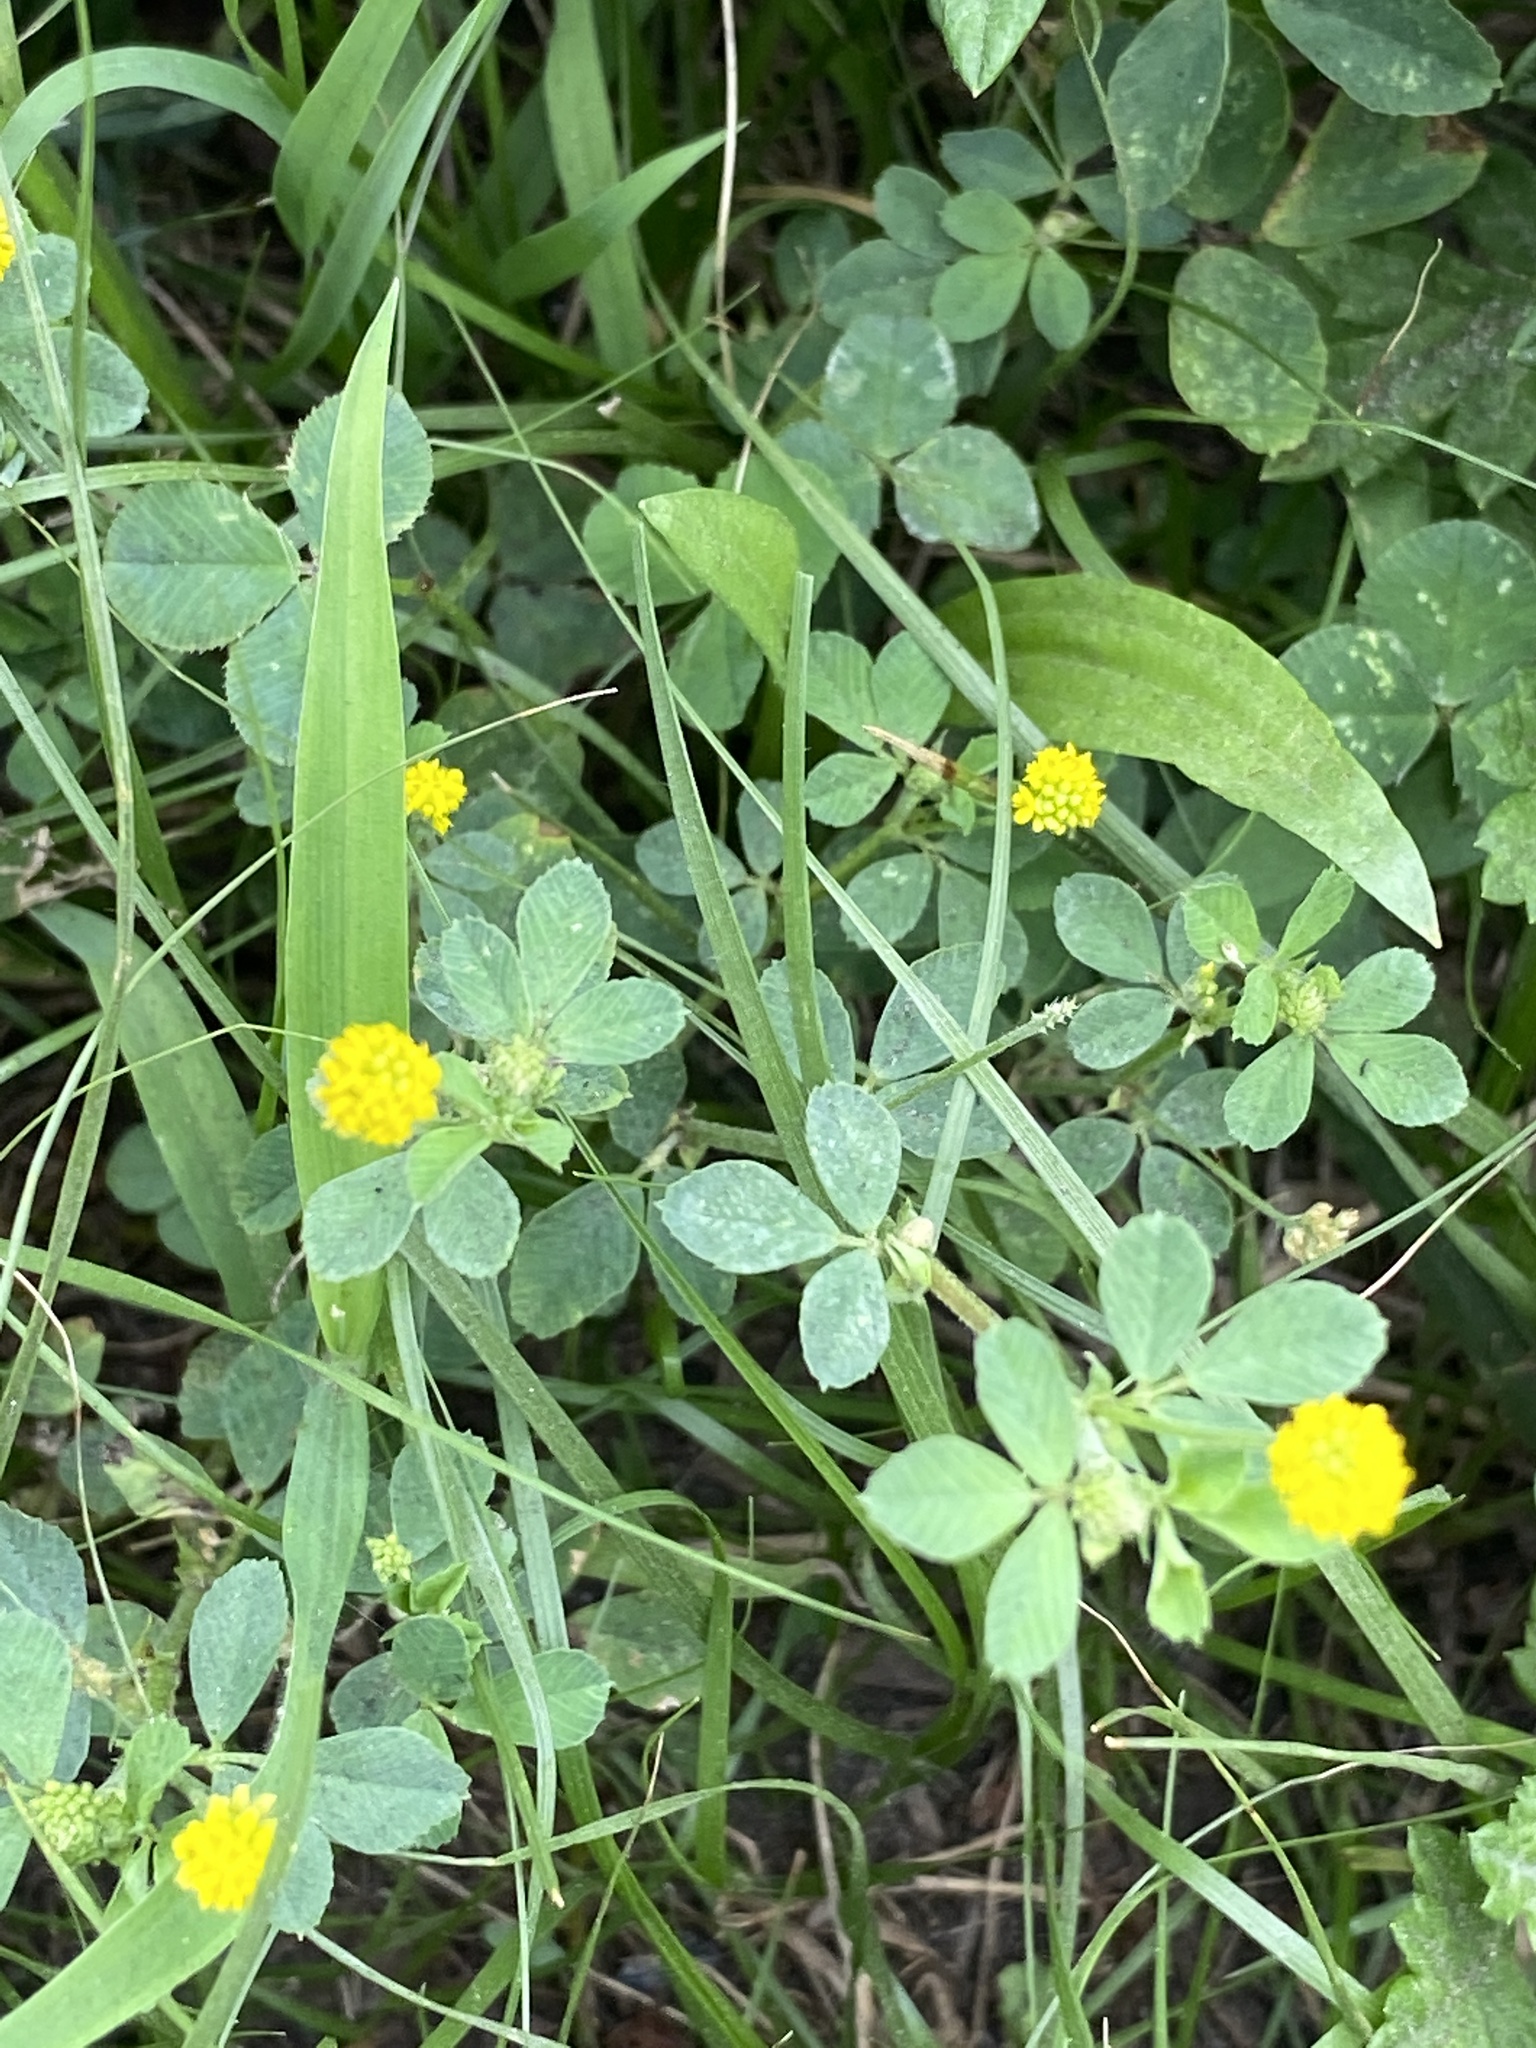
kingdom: Plantae
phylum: Tracheophyta
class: Magnoliopsida
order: Fabales
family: Fabaceae
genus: Medicago
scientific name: Medicago lupulina
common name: Black medick
